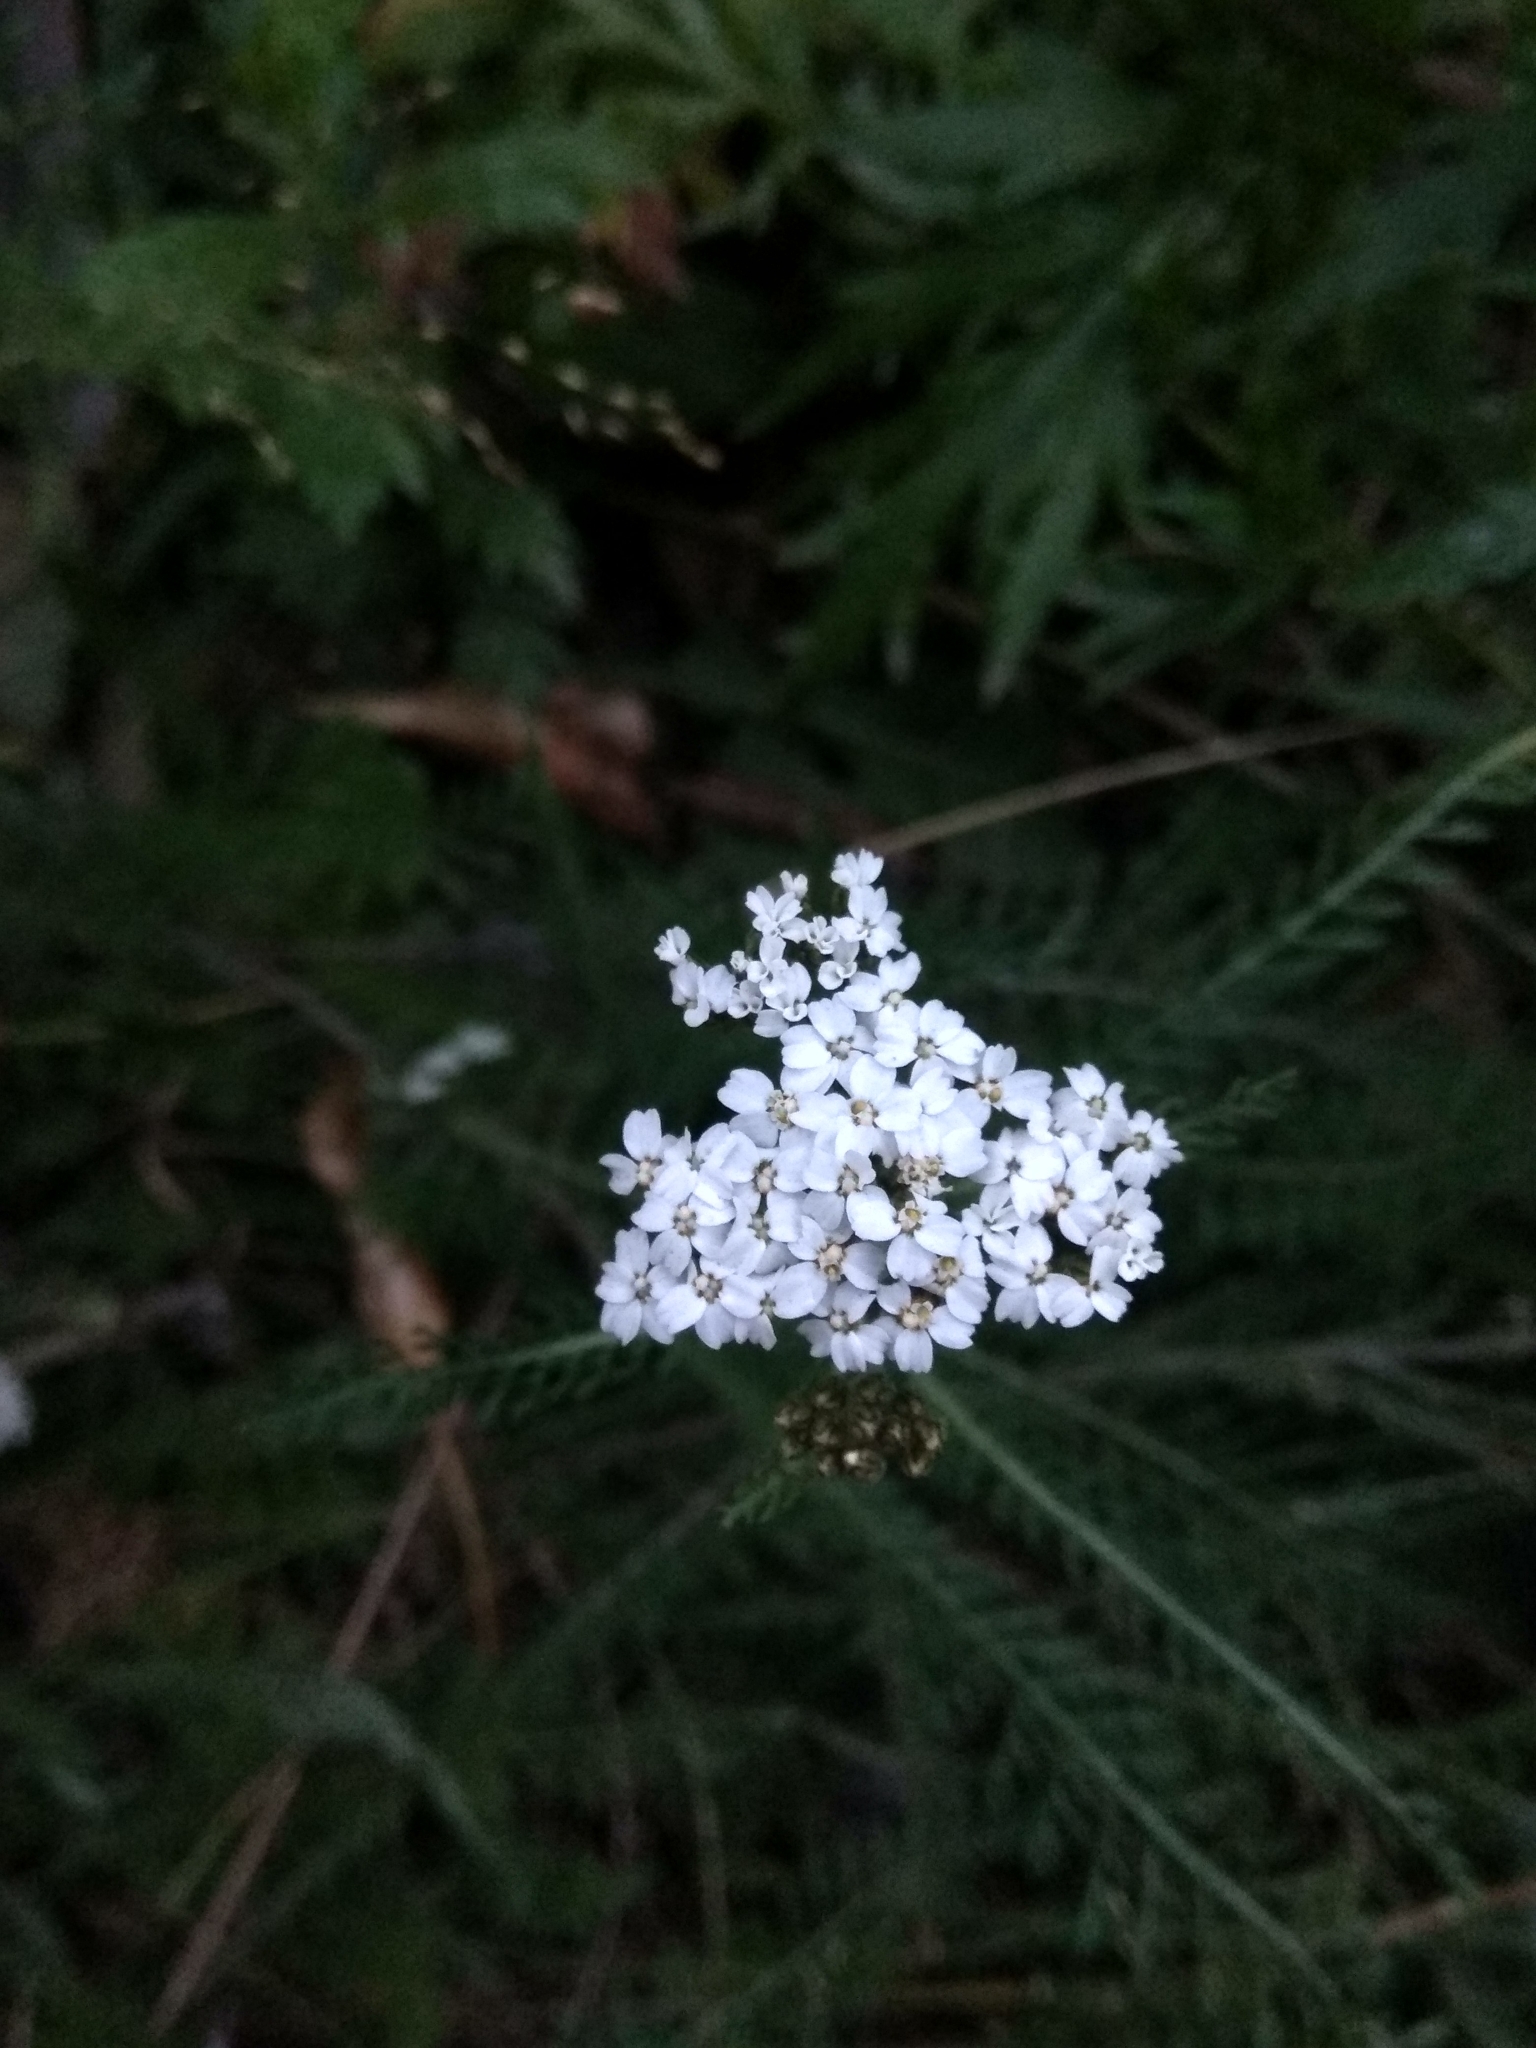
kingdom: Plantae
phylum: Tracheophyta
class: Magnoliopsida
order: Asterales
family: Asteraceae
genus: Achillea
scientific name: Achillea millefolium
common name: Yarrow
